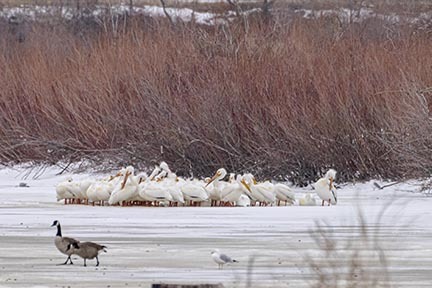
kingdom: Animalia
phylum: Chordata
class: Aves
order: Pelecaniformes
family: Pelecanidae
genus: Pelecanus
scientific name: Pelecanus erythrorhynchos
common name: American white pelican
